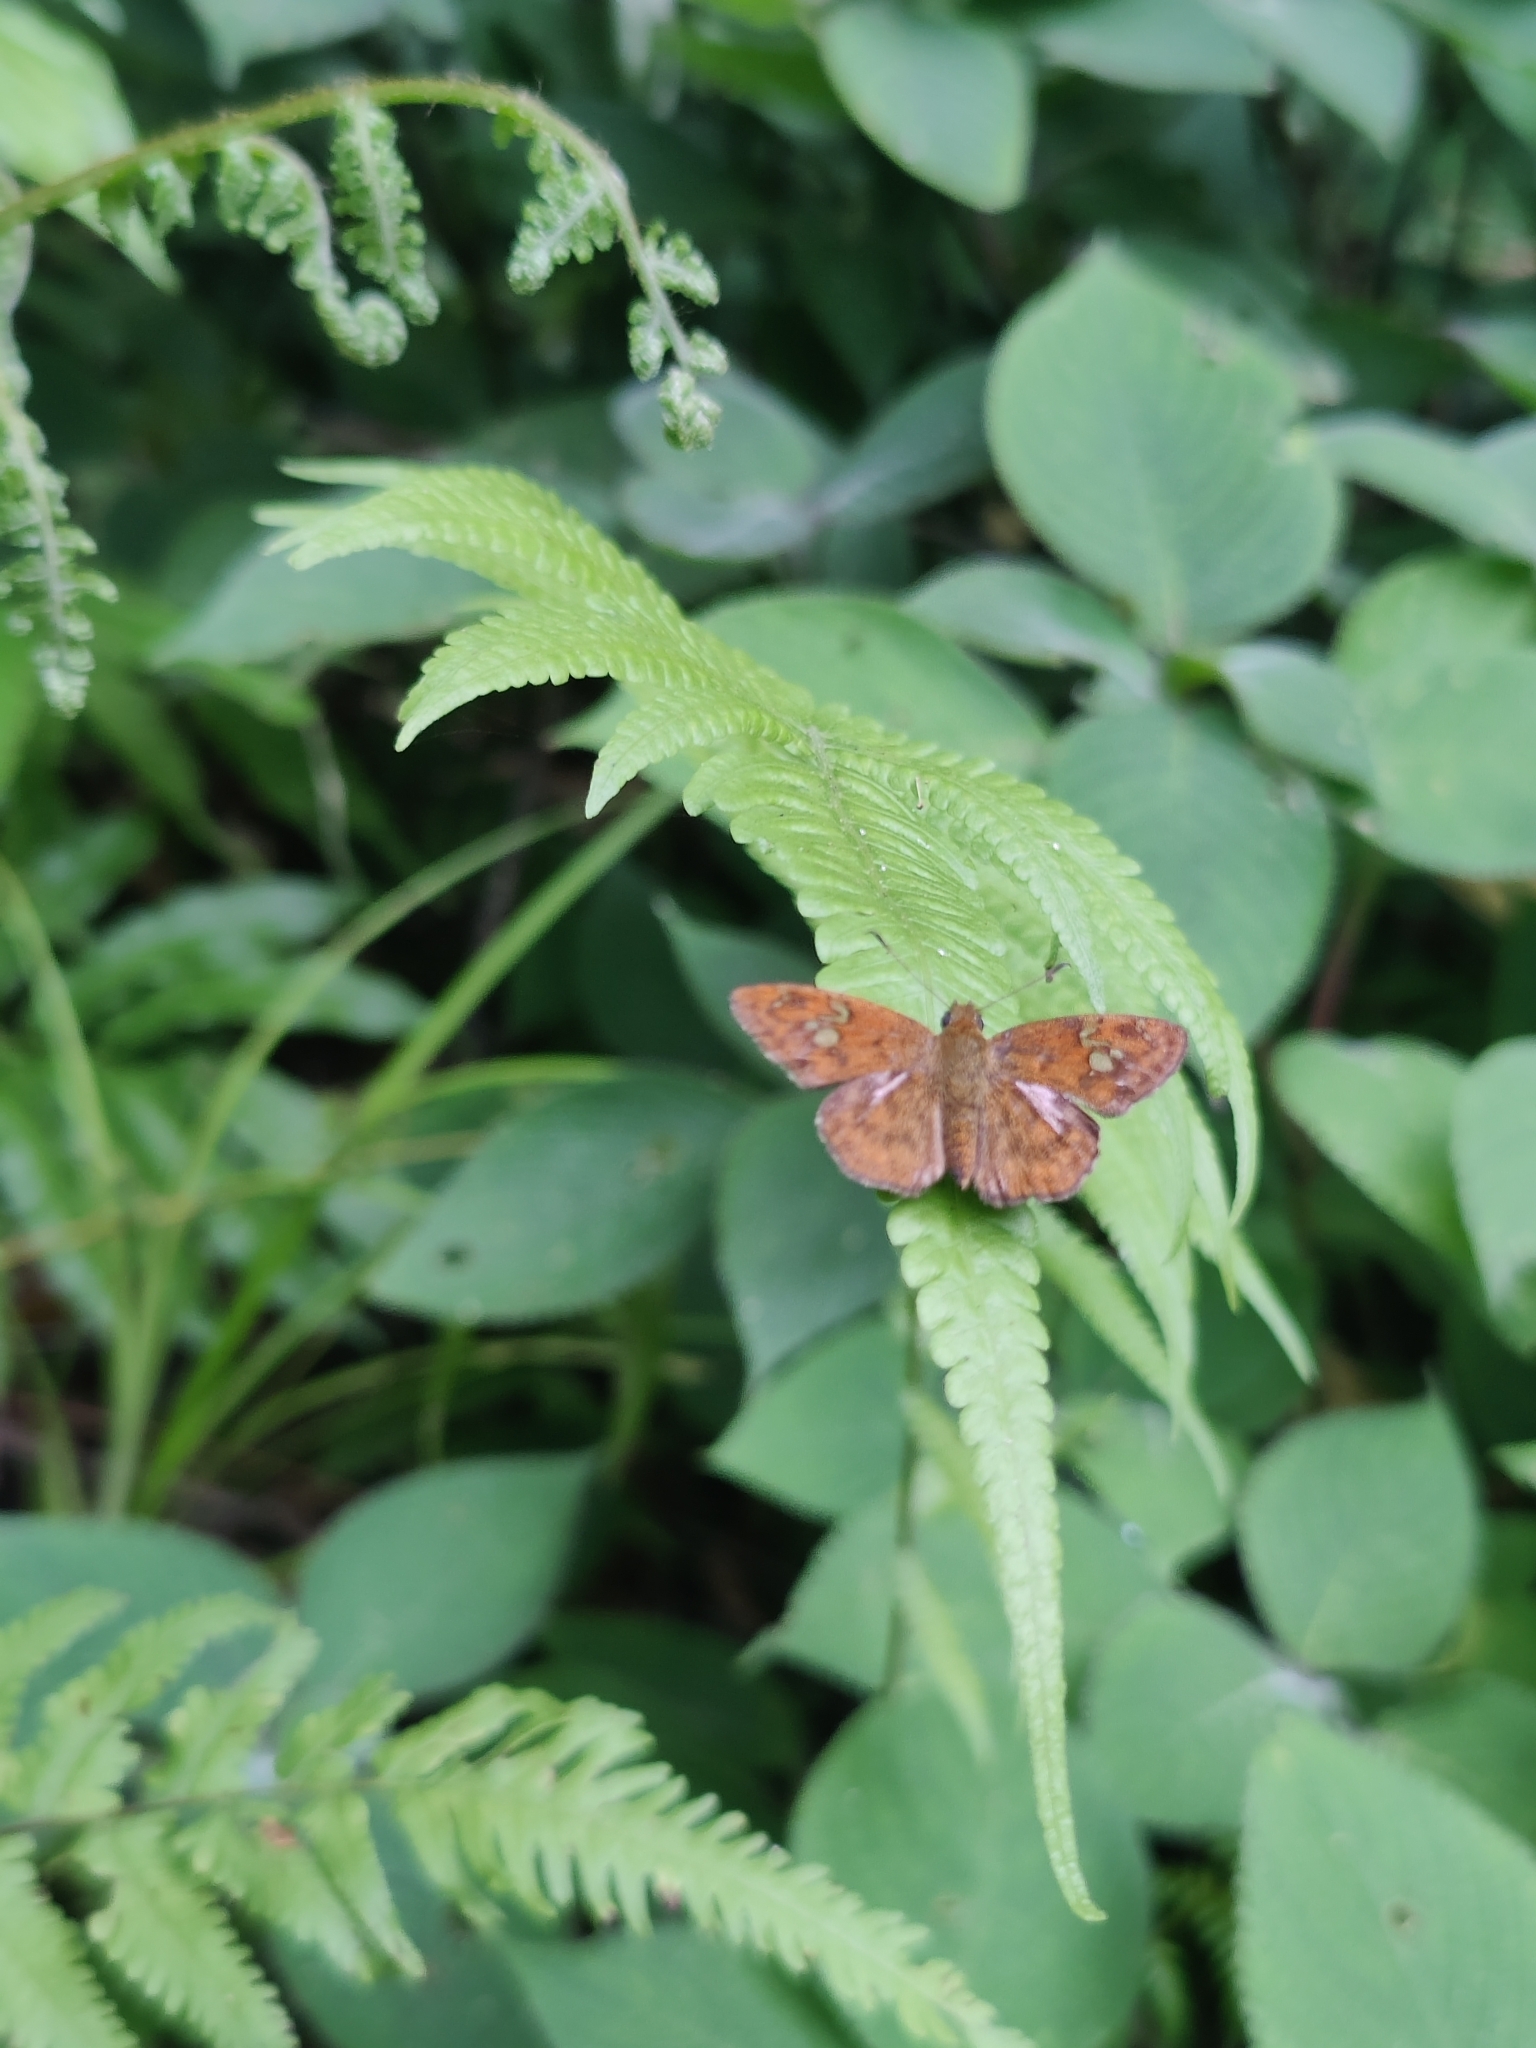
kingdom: Animalia
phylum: Arthropoda
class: Insecta
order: Lepidoptera
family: Hesperiidae
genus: Pseudocoladenia
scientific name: Pseudocoladenia dan
